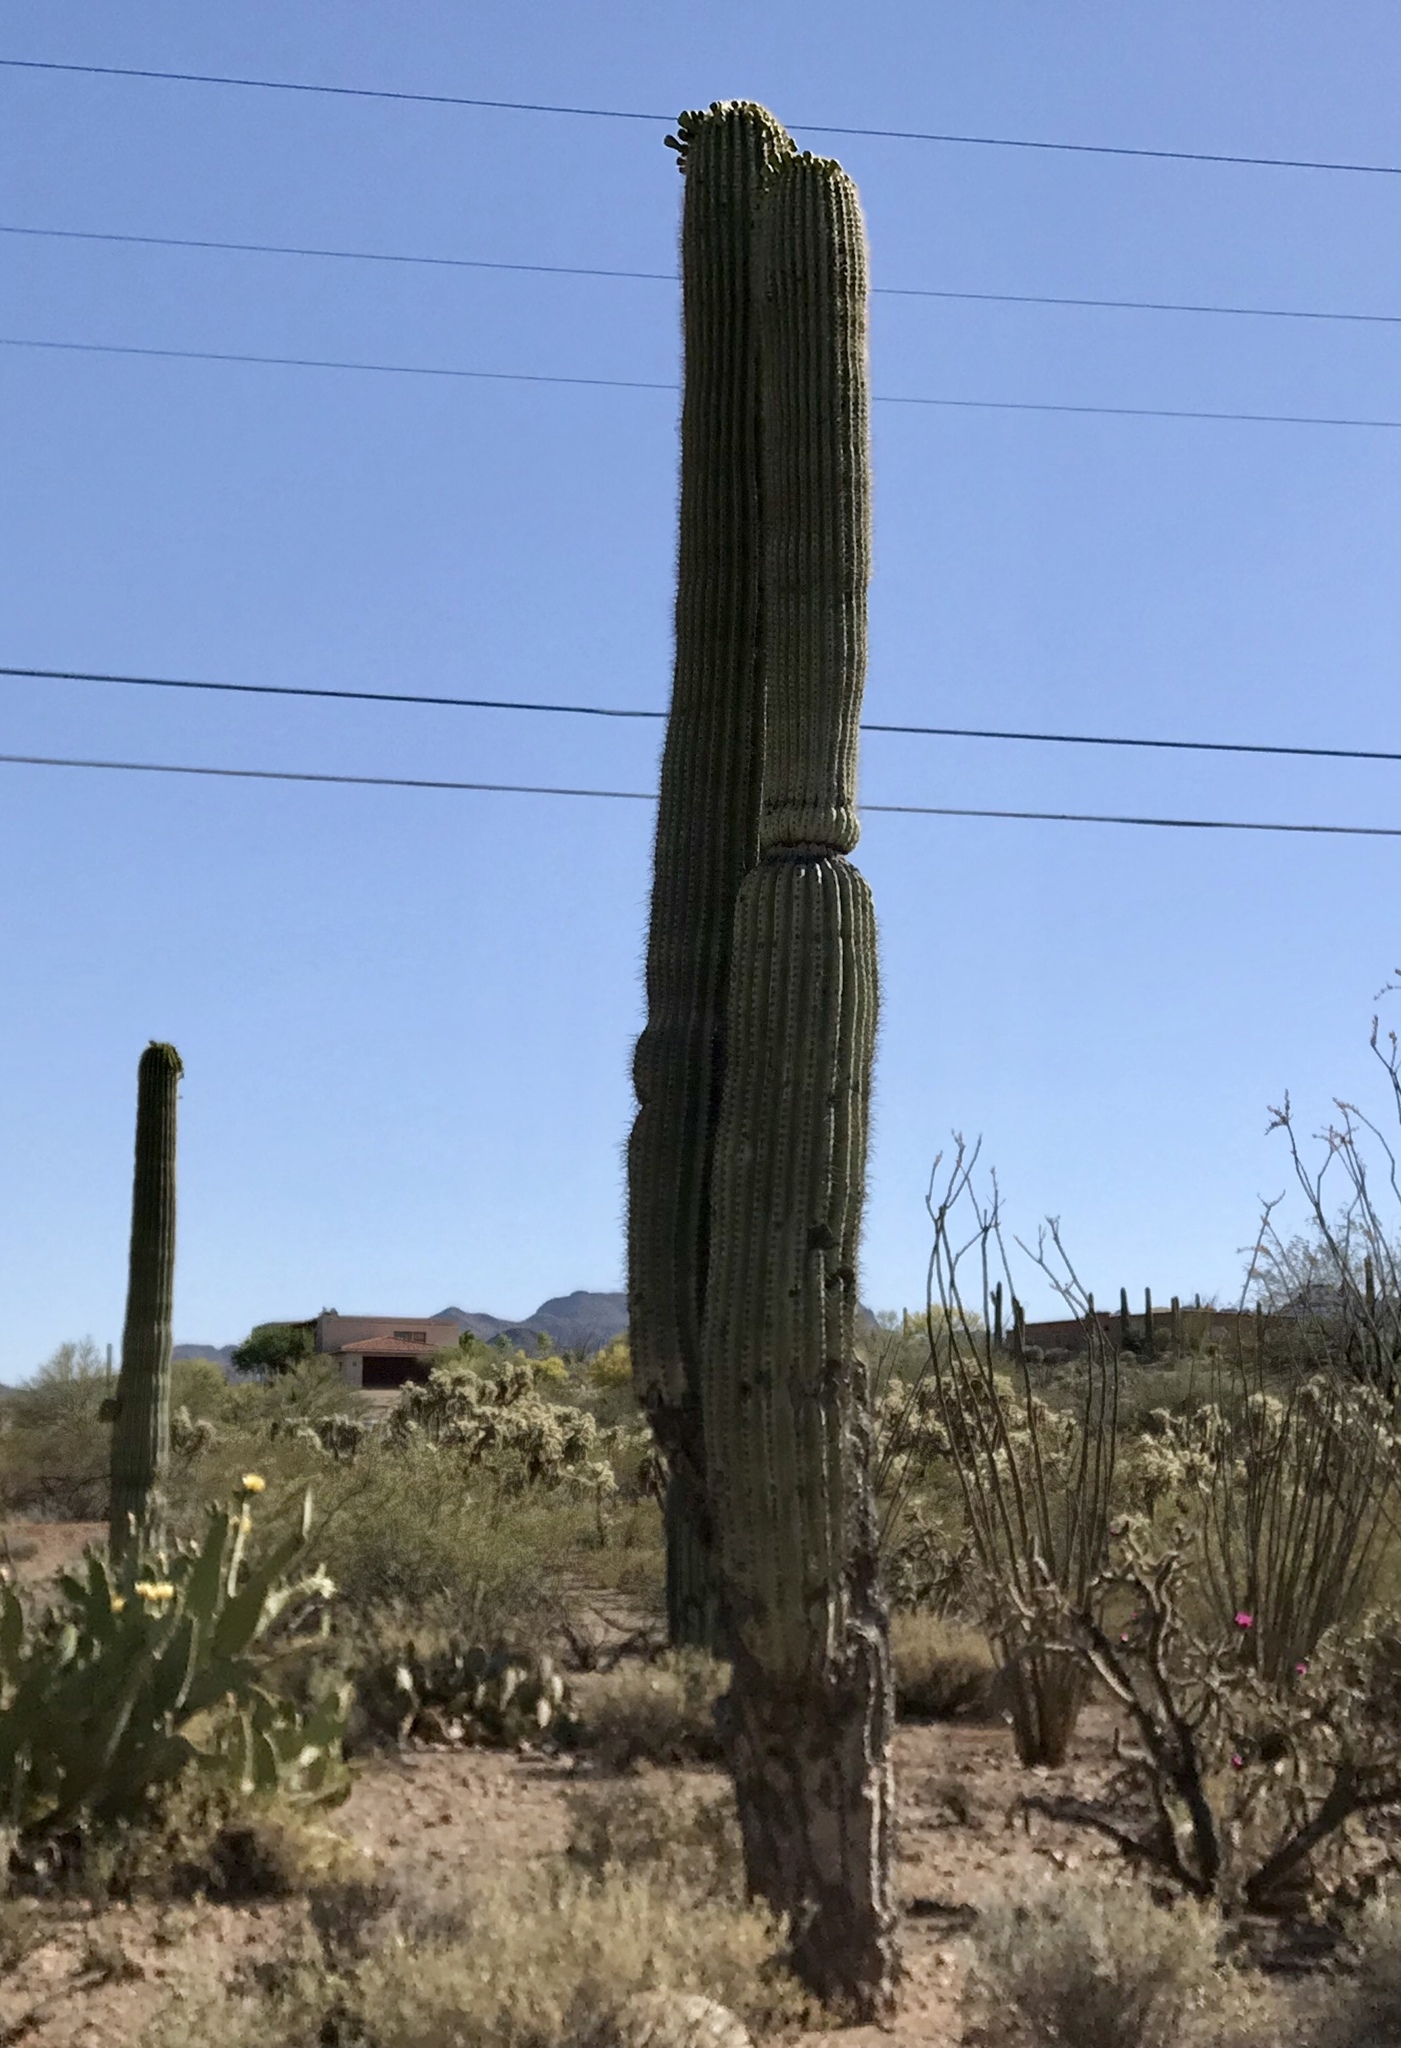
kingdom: Plantae
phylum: Tracheophyta
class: Magnoliopsida
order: Caryophyllales
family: Cactaceae
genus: Carnegiea
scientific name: Carnegiea gigantea
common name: Saguaro
